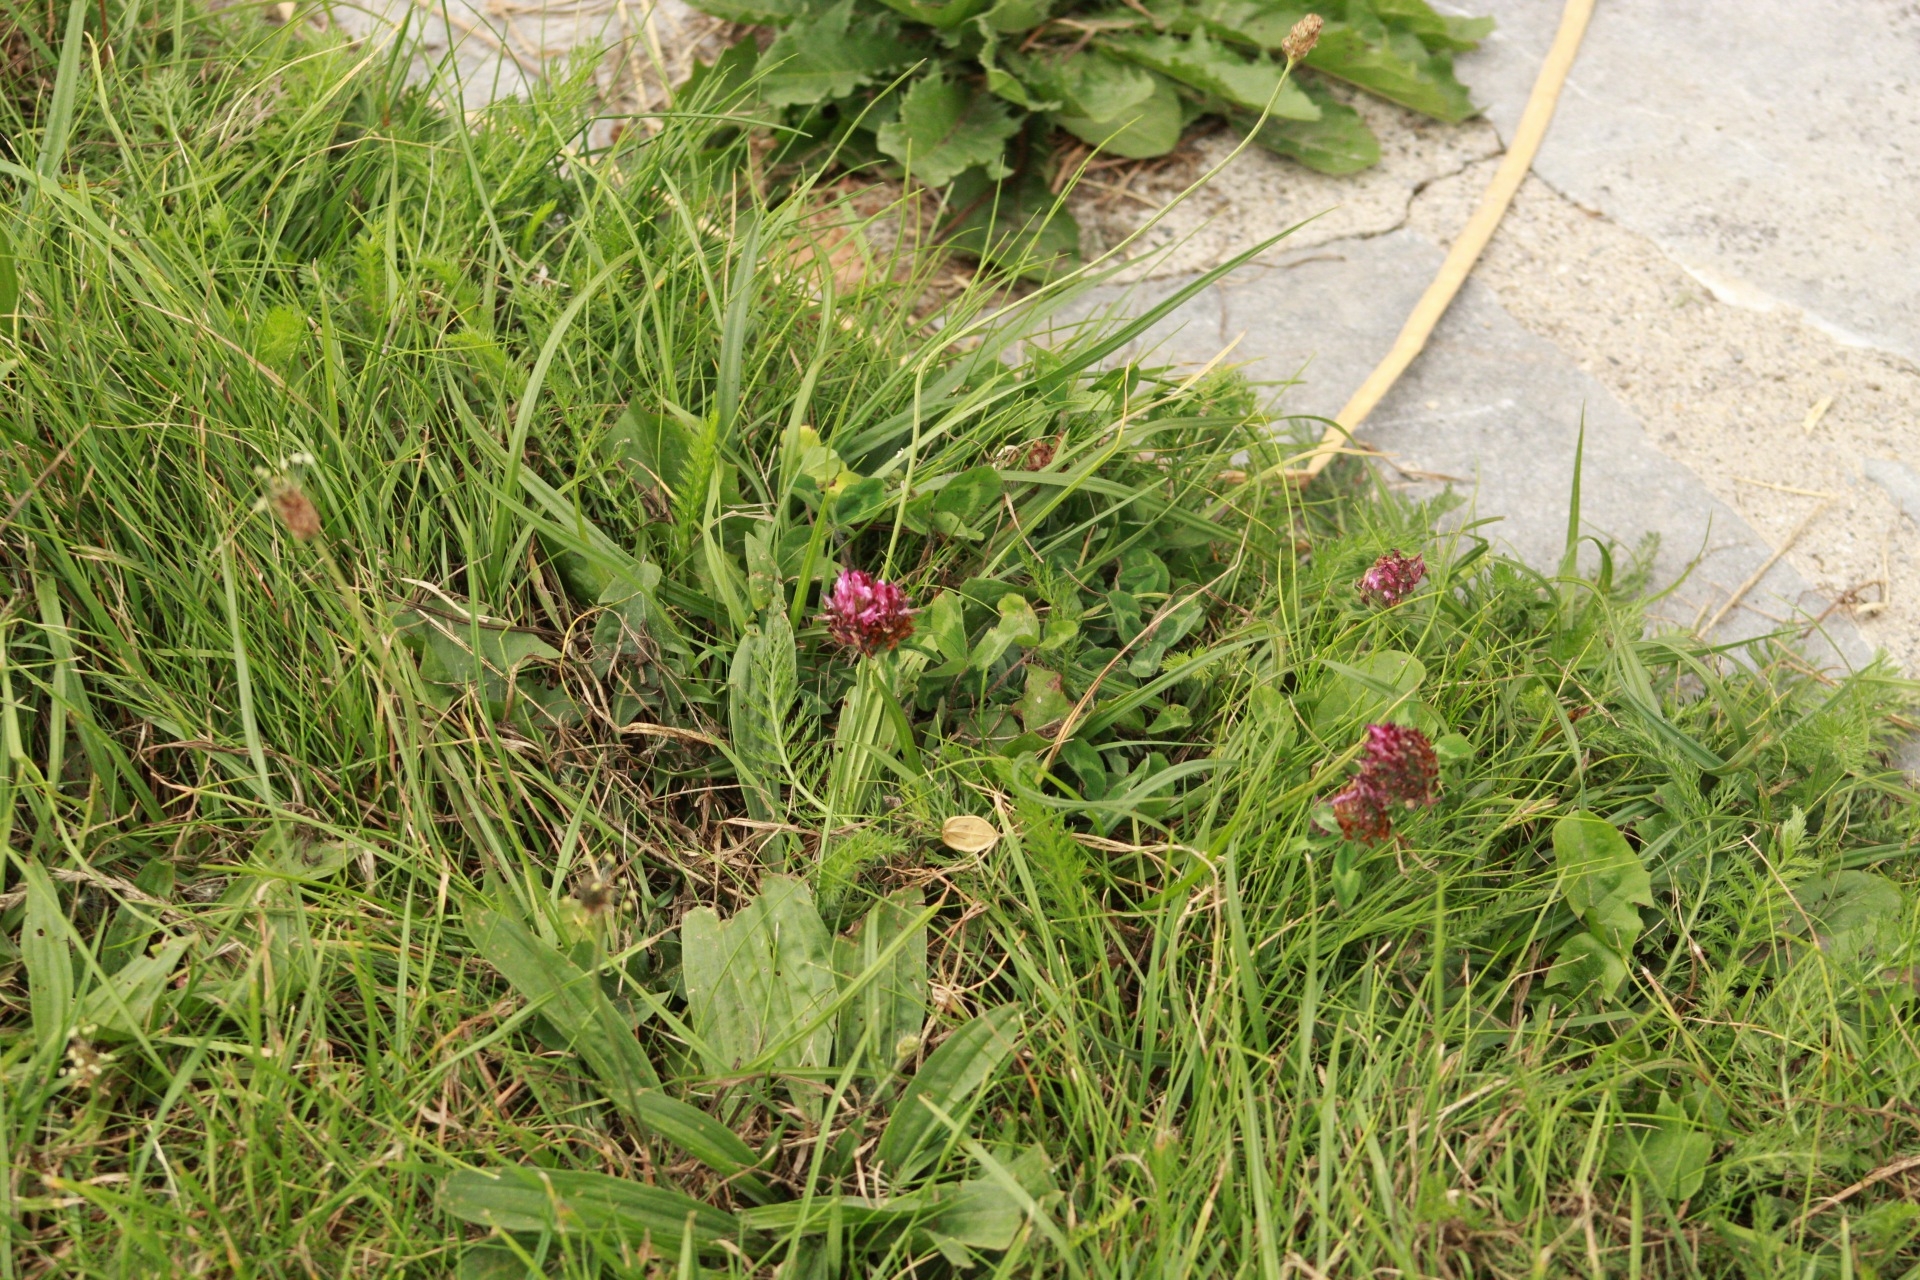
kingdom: Plantae
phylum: Tracheophyta
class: Magnoliopsida
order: Fabales
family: Fabaceae
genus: Trifolium
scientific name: Trifolium pratense
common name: Red clover
